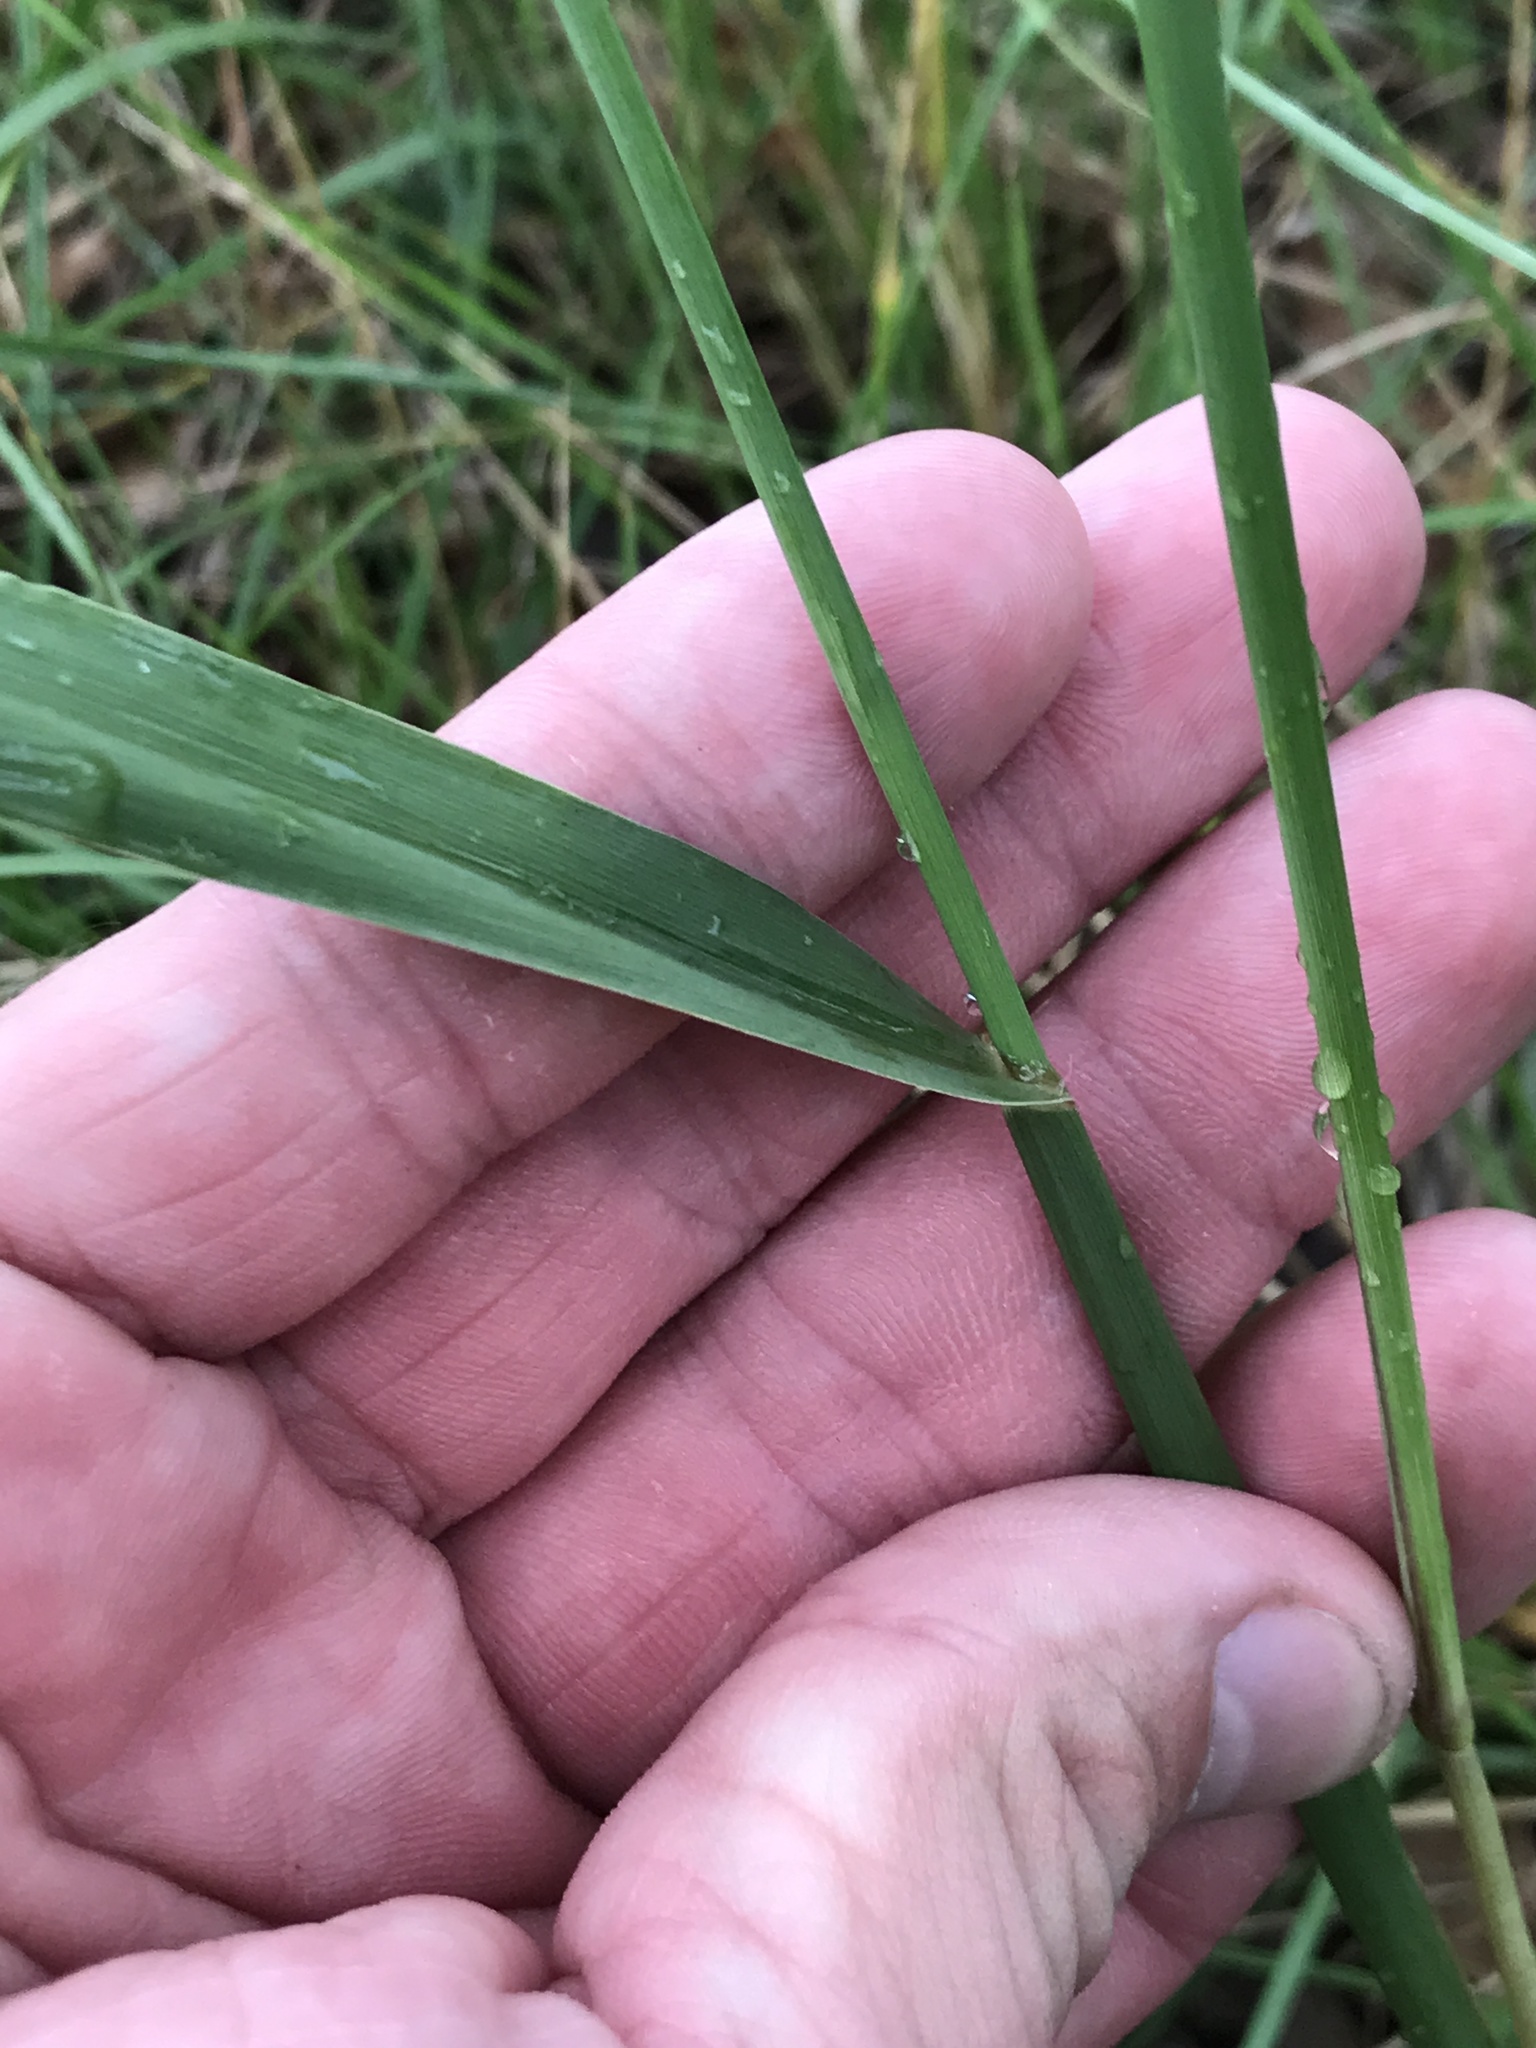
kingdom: Plantae
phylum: Tracheophyta
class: Liliopsida
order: Poales
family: Poaceae
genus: Paspalum
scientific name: Paspalum dilatatum
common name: Dallisgrass
